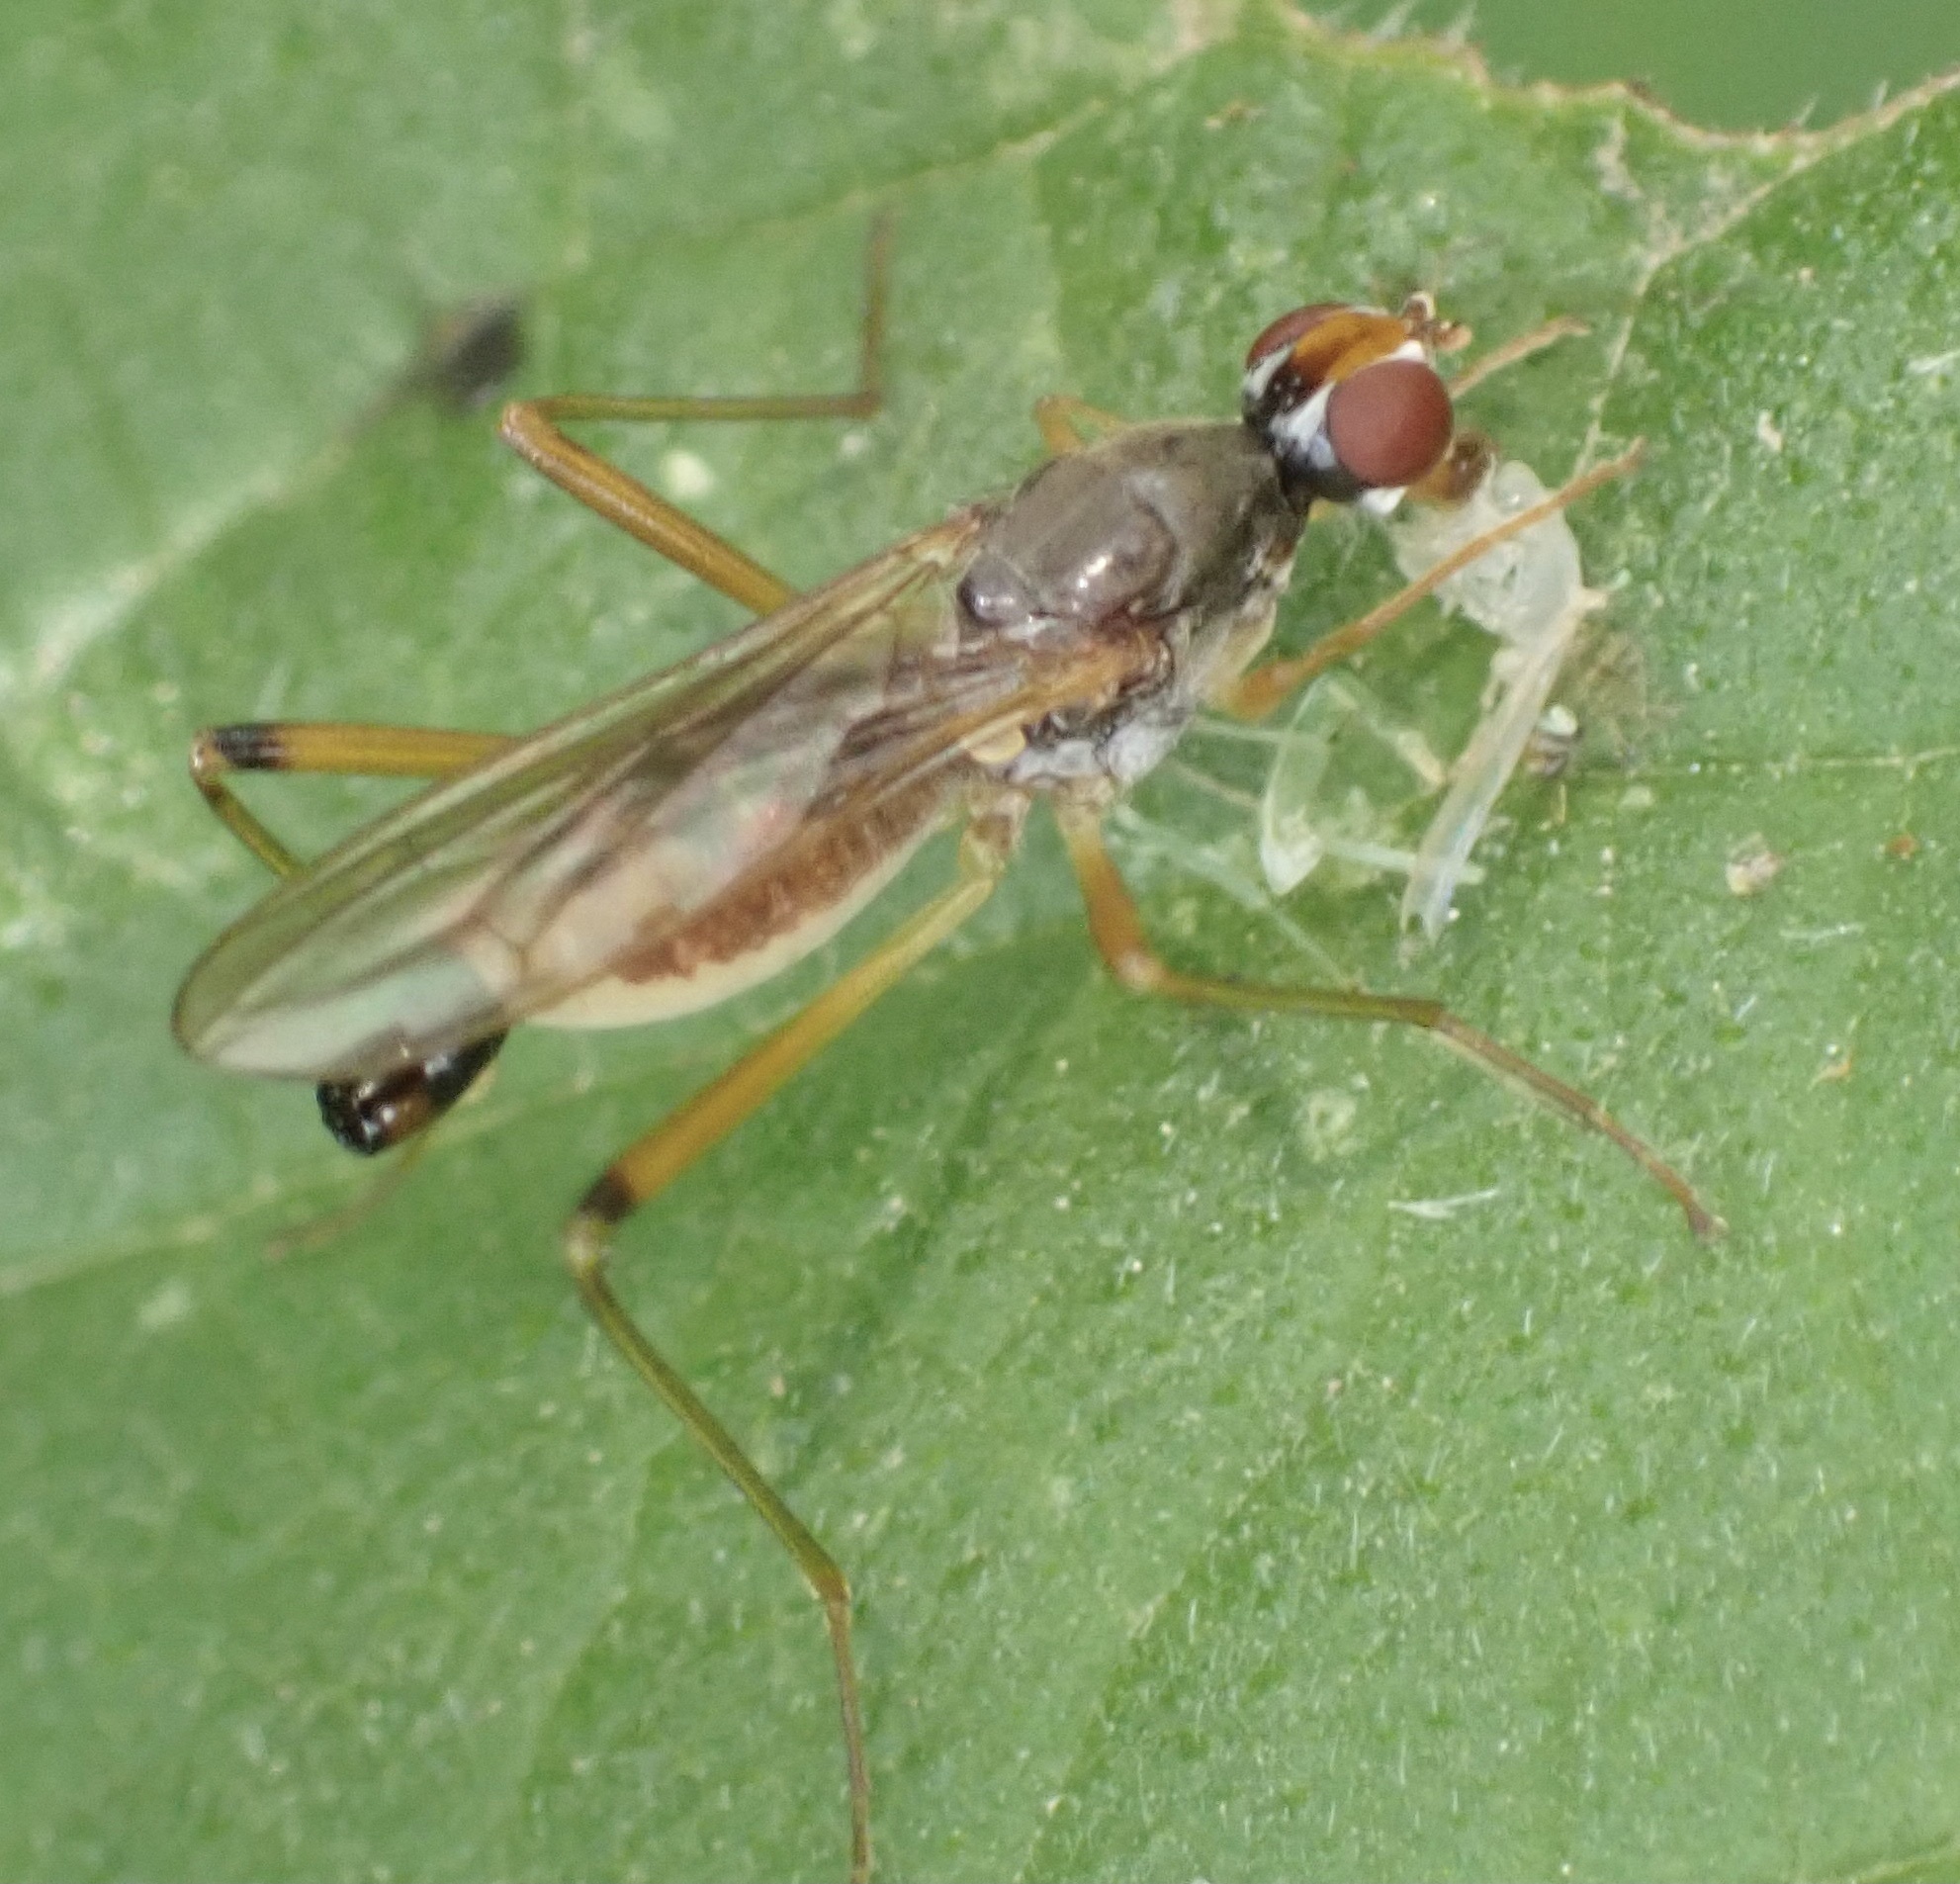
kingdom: Animalia
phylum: Arthropoda
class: Insecta
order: Diptera
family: Micropezidae
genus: Compsobata
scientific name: Compsobata cibaria
